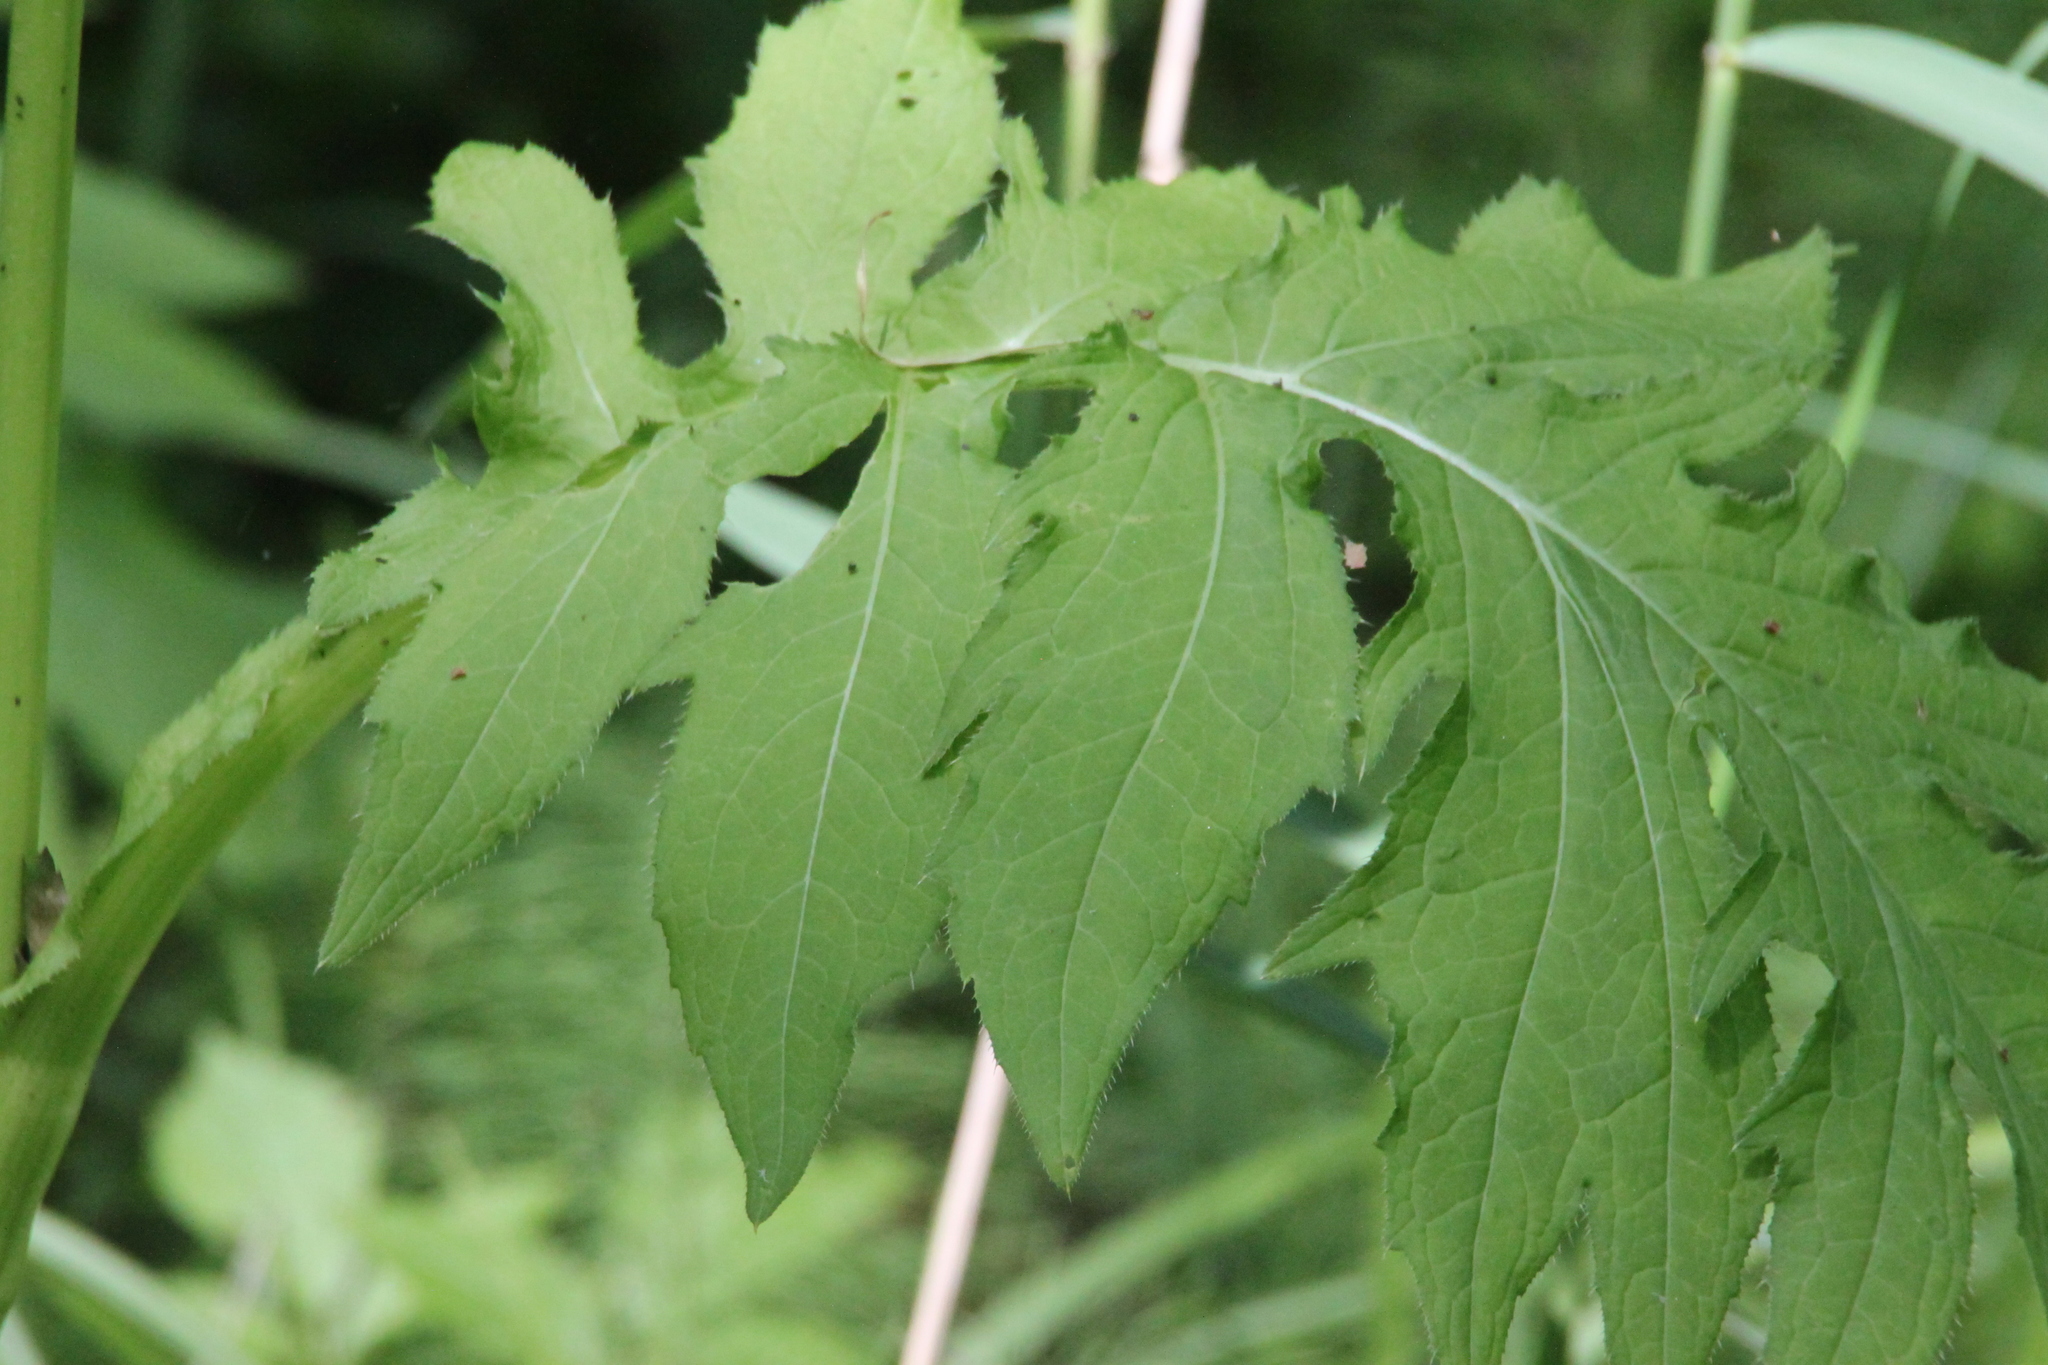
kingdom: Plantae
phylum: Tracheophyta
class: Magnoliopsida
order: Asterales
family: Asteraceae
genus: Cirsium
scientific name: Cirsium oleraceum
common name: Cabbage thistle
